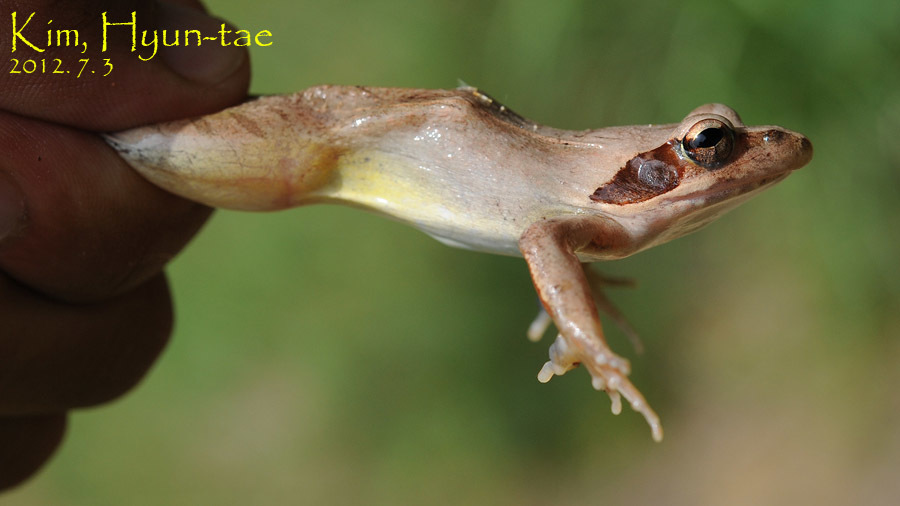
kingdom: Animalia
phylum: Chordata
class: Amphibia
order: Anura
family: Ranidae
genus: Rana
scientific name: Rana uenoi
